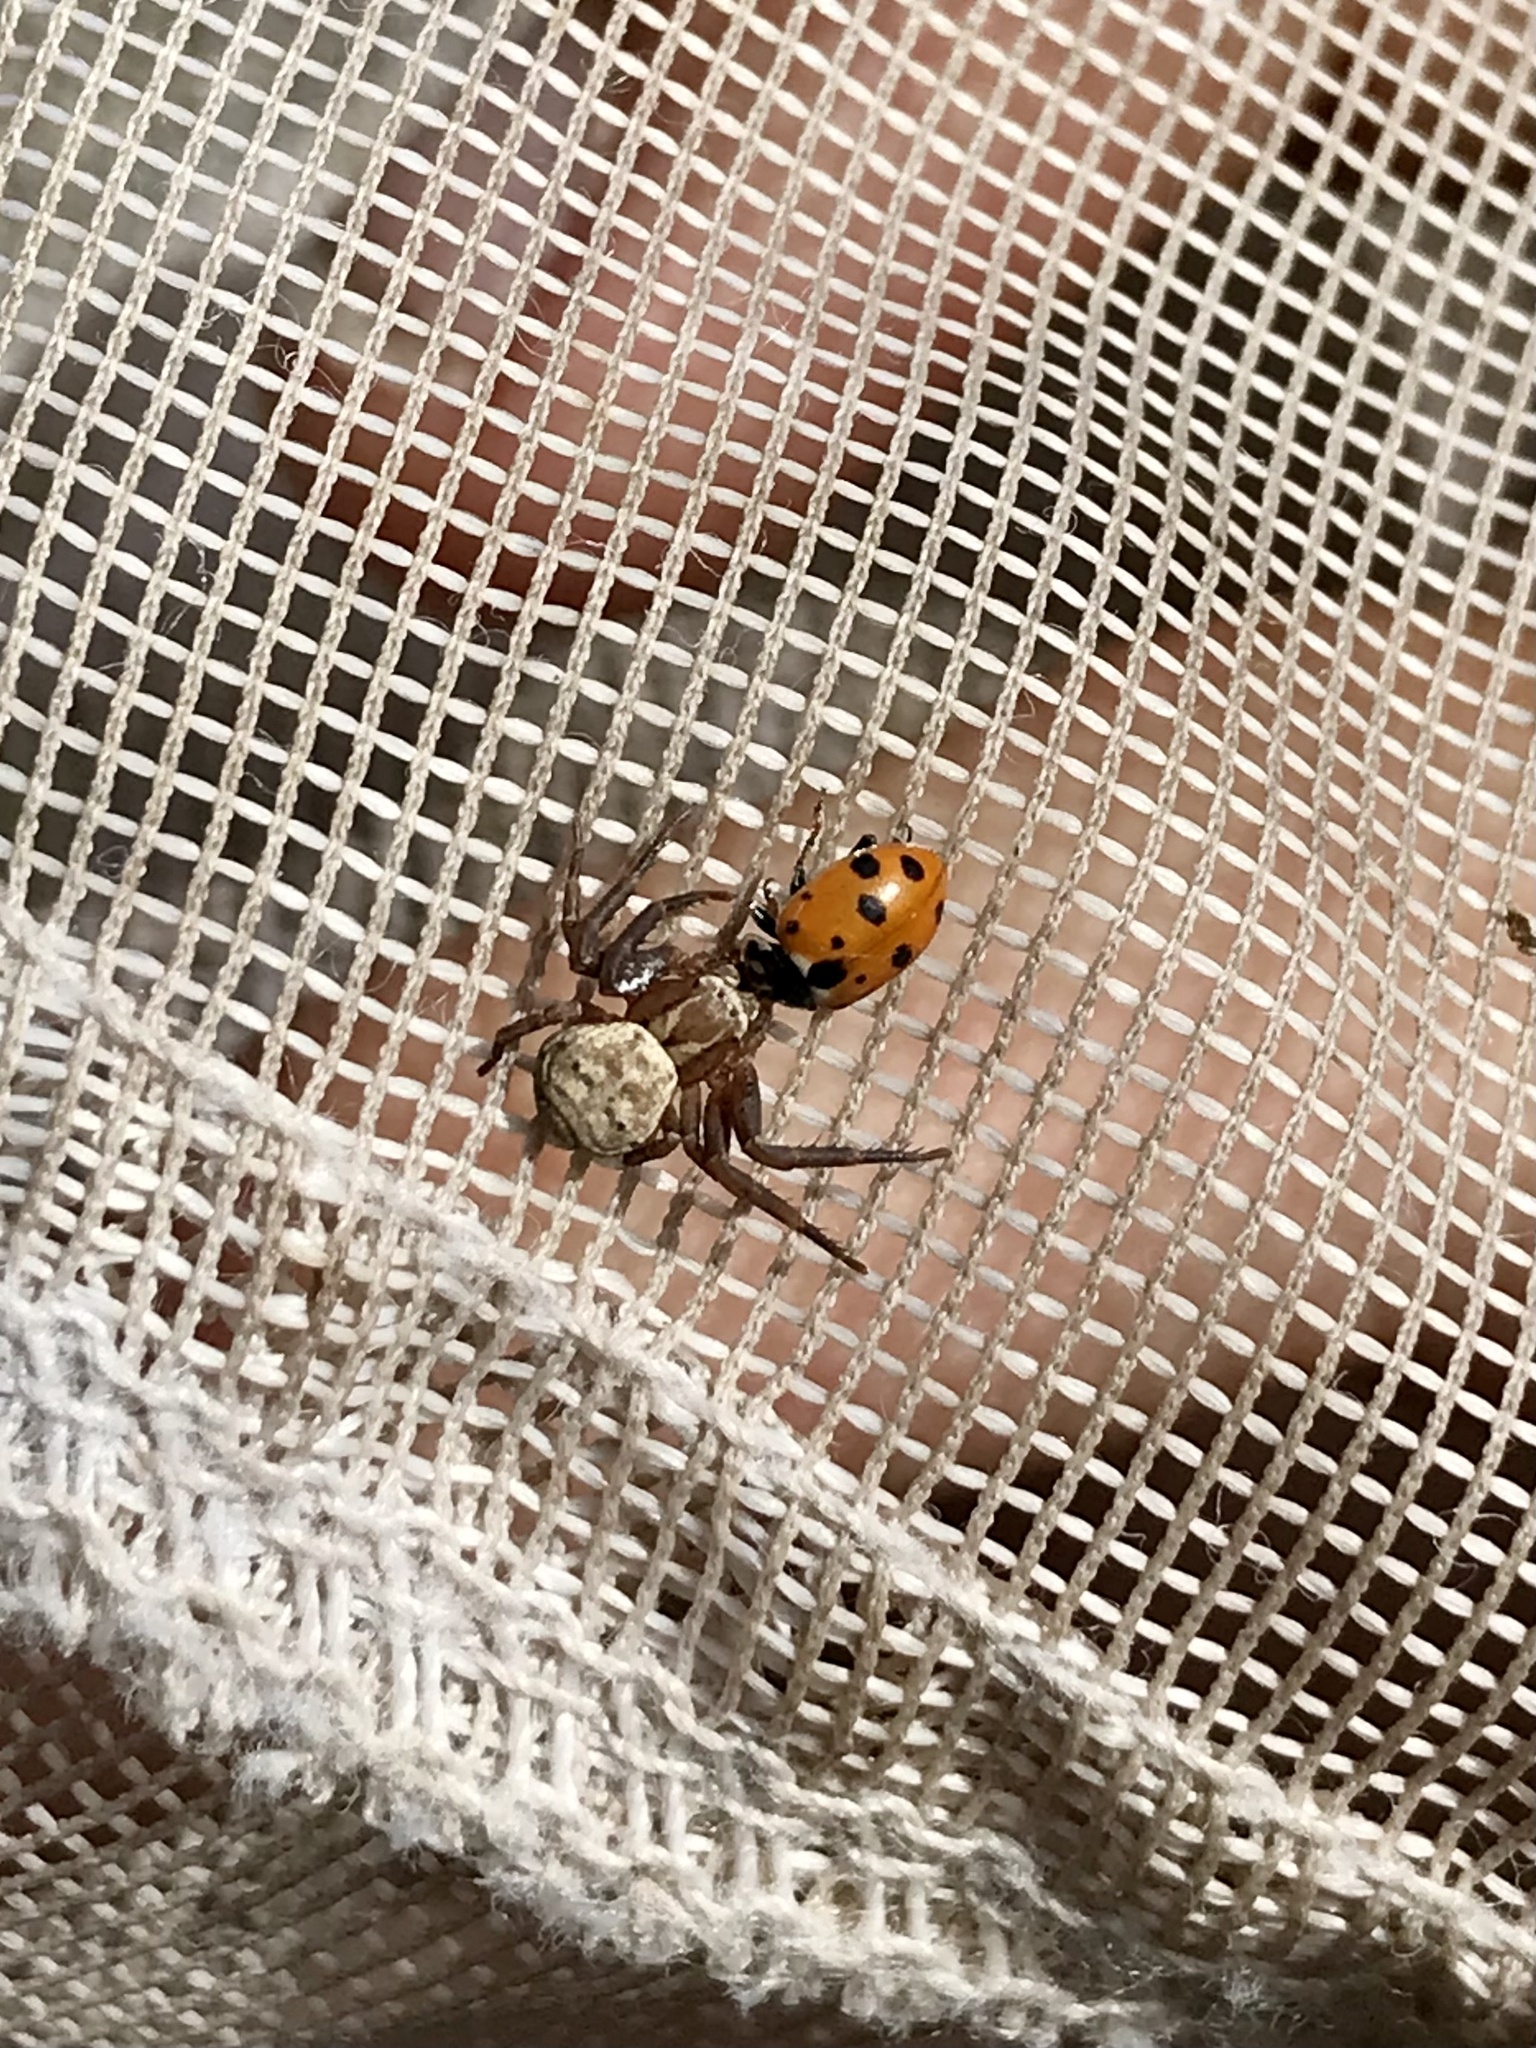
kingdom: Animalia
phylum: Arthropoda
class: Insecta
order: Coleoptera
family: Coccinellidae
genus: Hippodamia
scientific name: Hippodamia variegata
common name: Ladybird beetle
